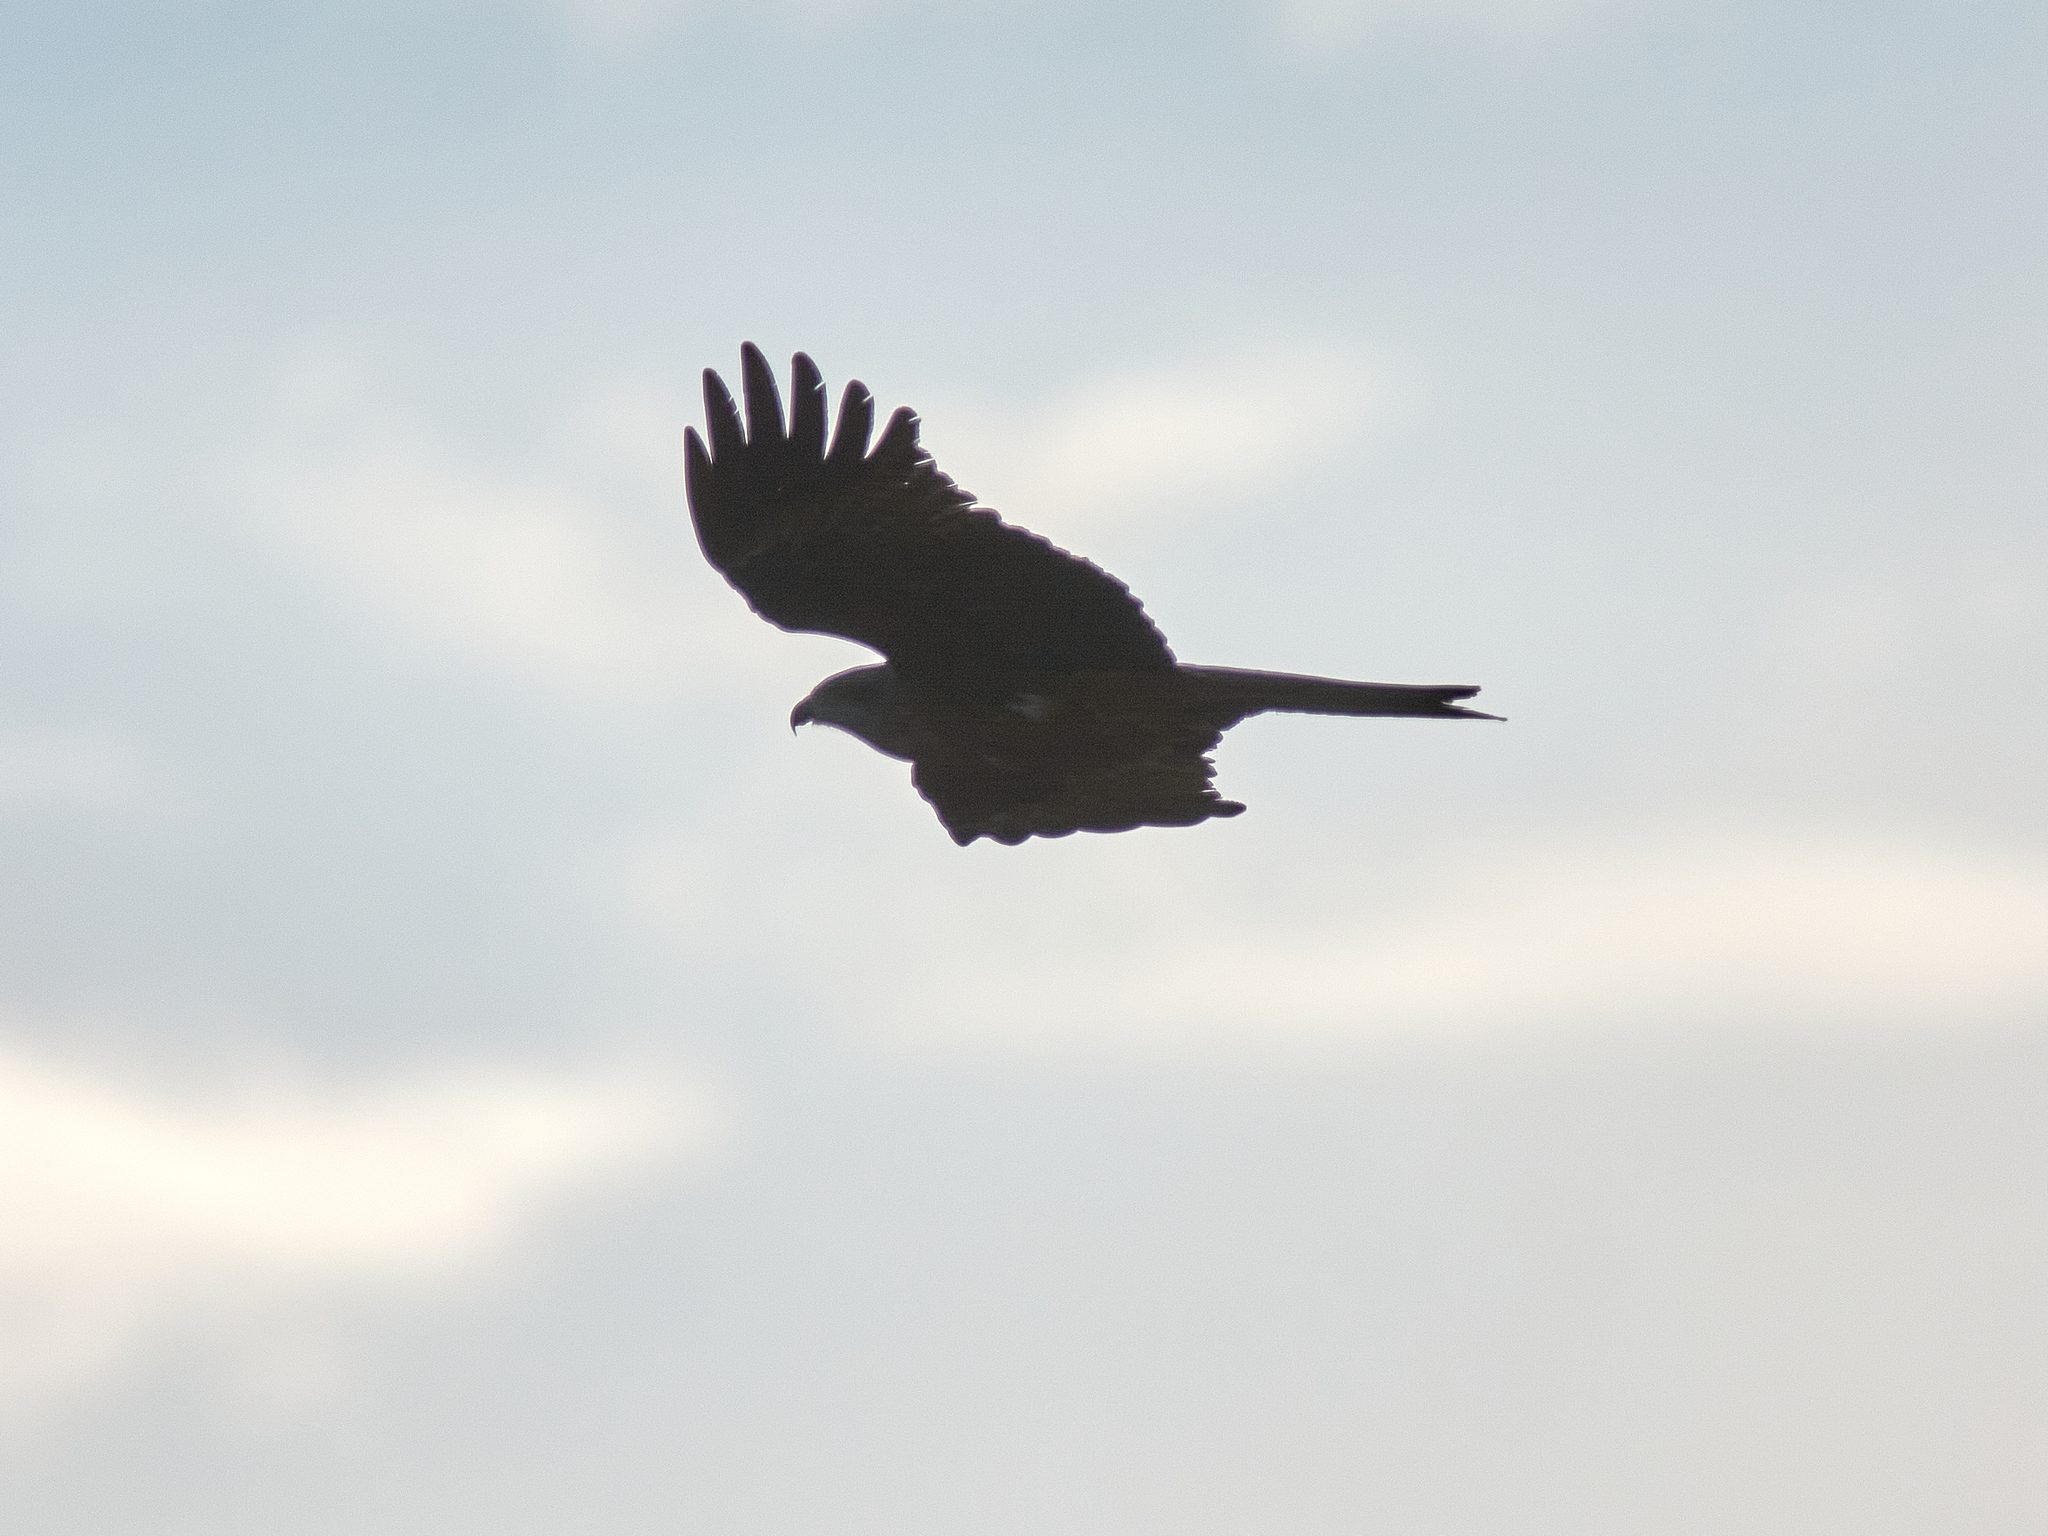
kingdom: Animalia
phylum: Chordata
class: Aves
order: Accipitriformes
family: Accipitridae
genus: Milvus
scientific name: Milvus migrans
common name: Black kite
